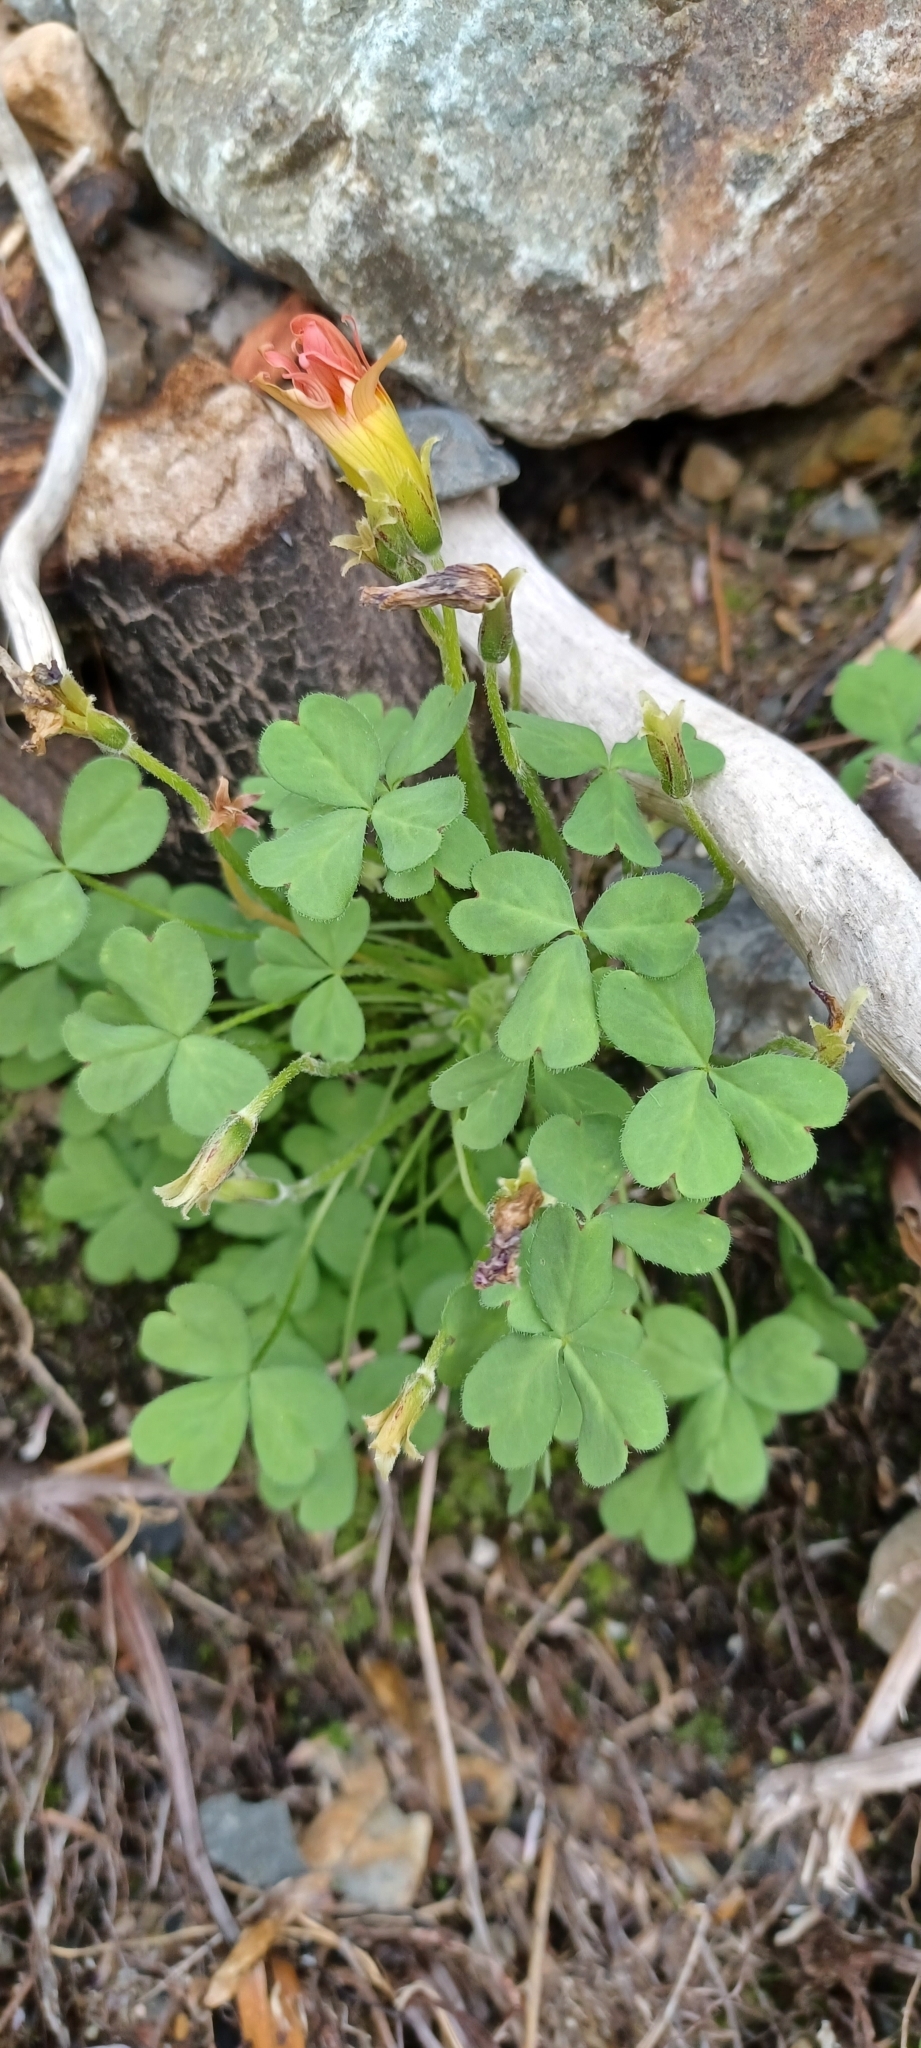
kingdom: Plantae
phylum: Tracheophyta
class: Magnoliopsida
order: Oxalidales
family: Oxalidaceae
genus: Oxalis
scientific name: Oxalis obtusa
